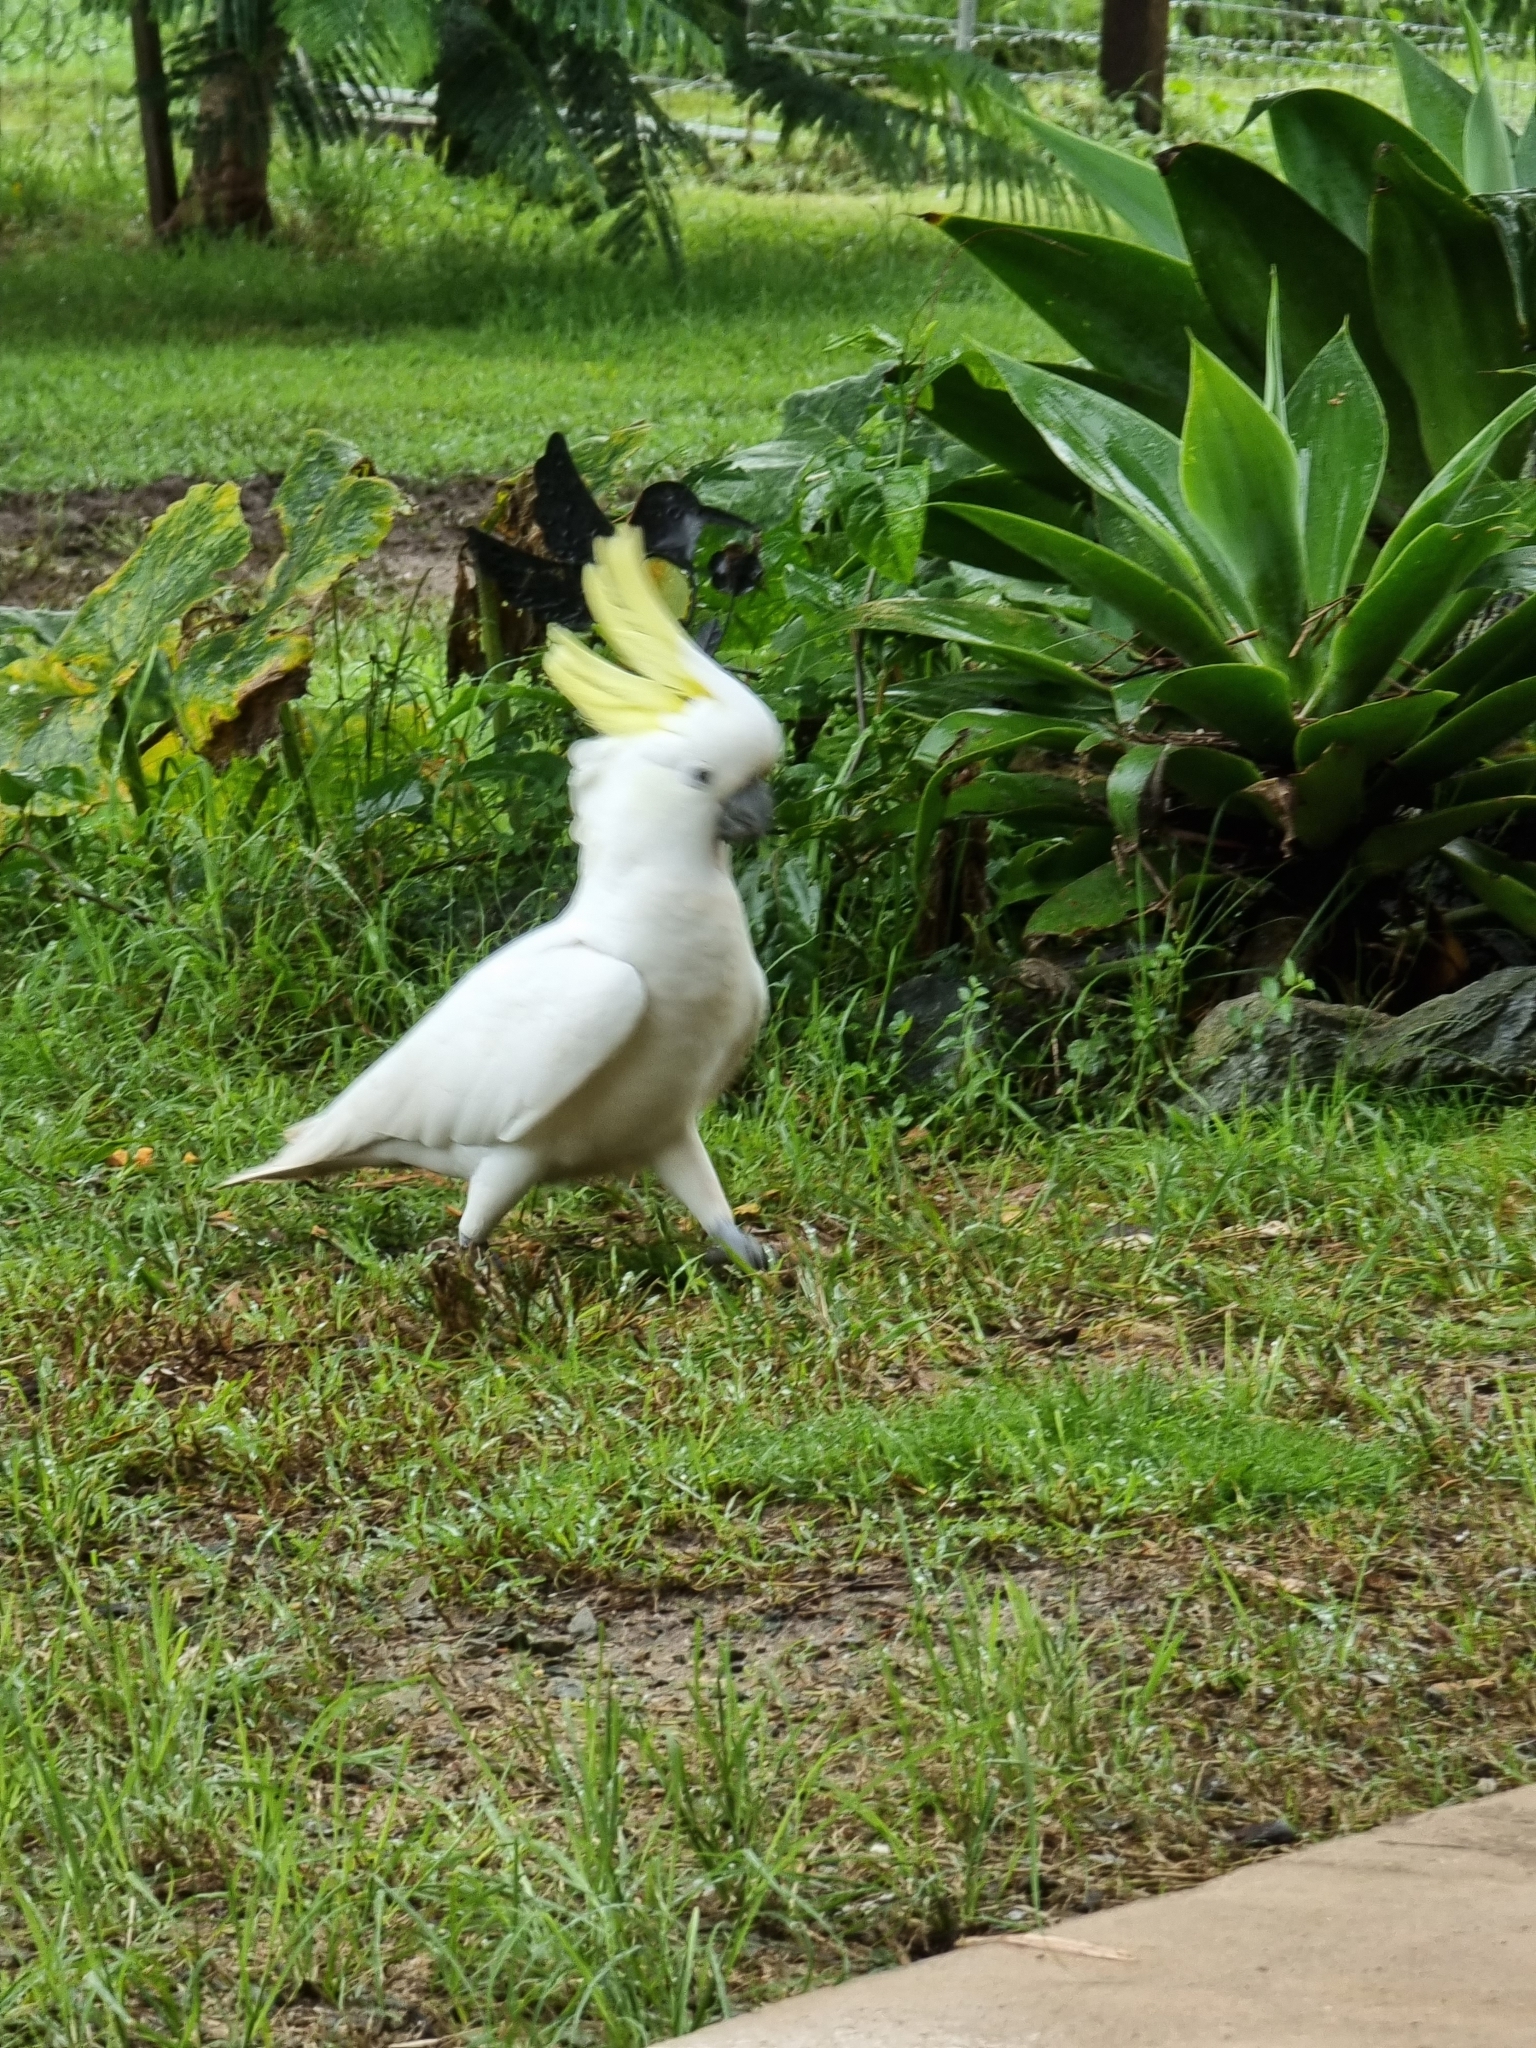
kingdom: Animalia
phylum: Chordata
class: Aves
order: Psittaciformes
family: Psittacidae
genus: Cacatua
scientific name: Cacatua galerita
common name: Sulphur-crested cockatoo
